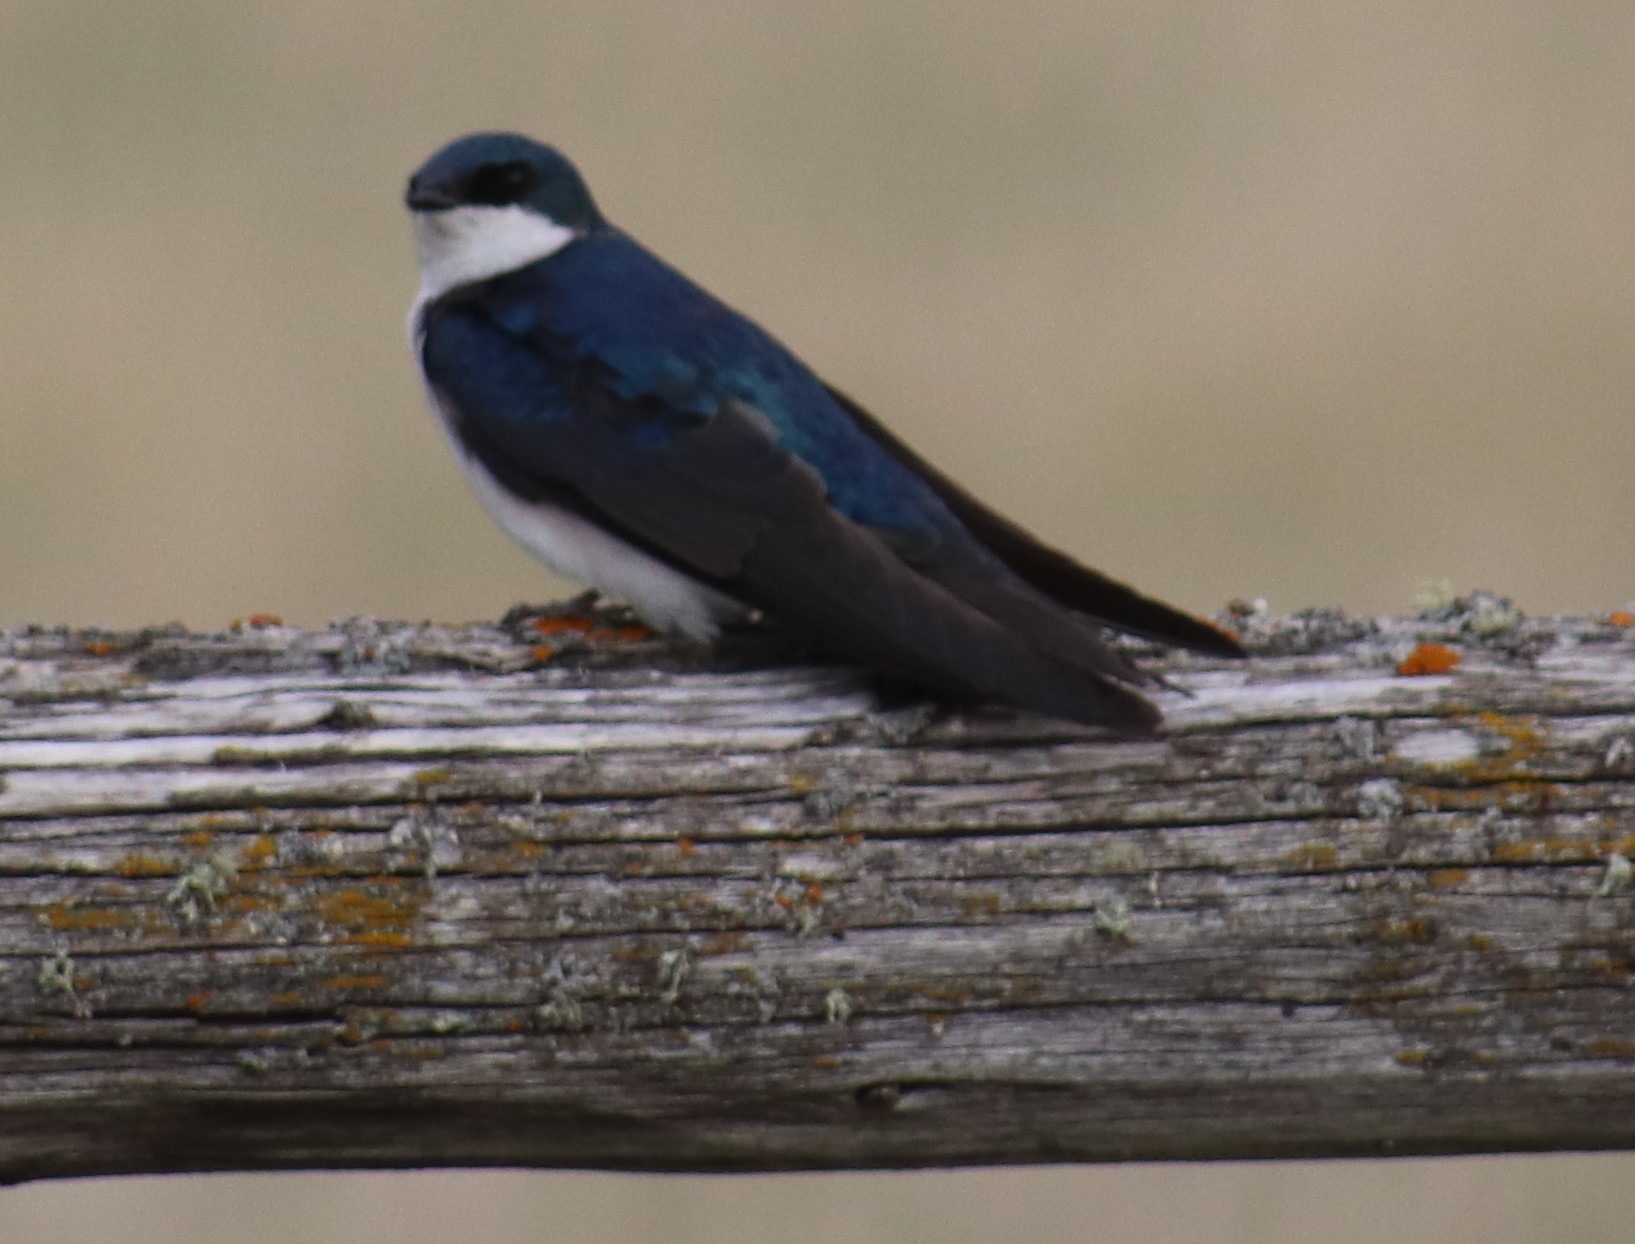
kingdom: Animalia
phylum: Chordata
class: Aves
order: Passeriformes
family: Hirundinidae
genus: Tachycineta
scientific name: Tachycineta bicolor
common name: Tree swallow
